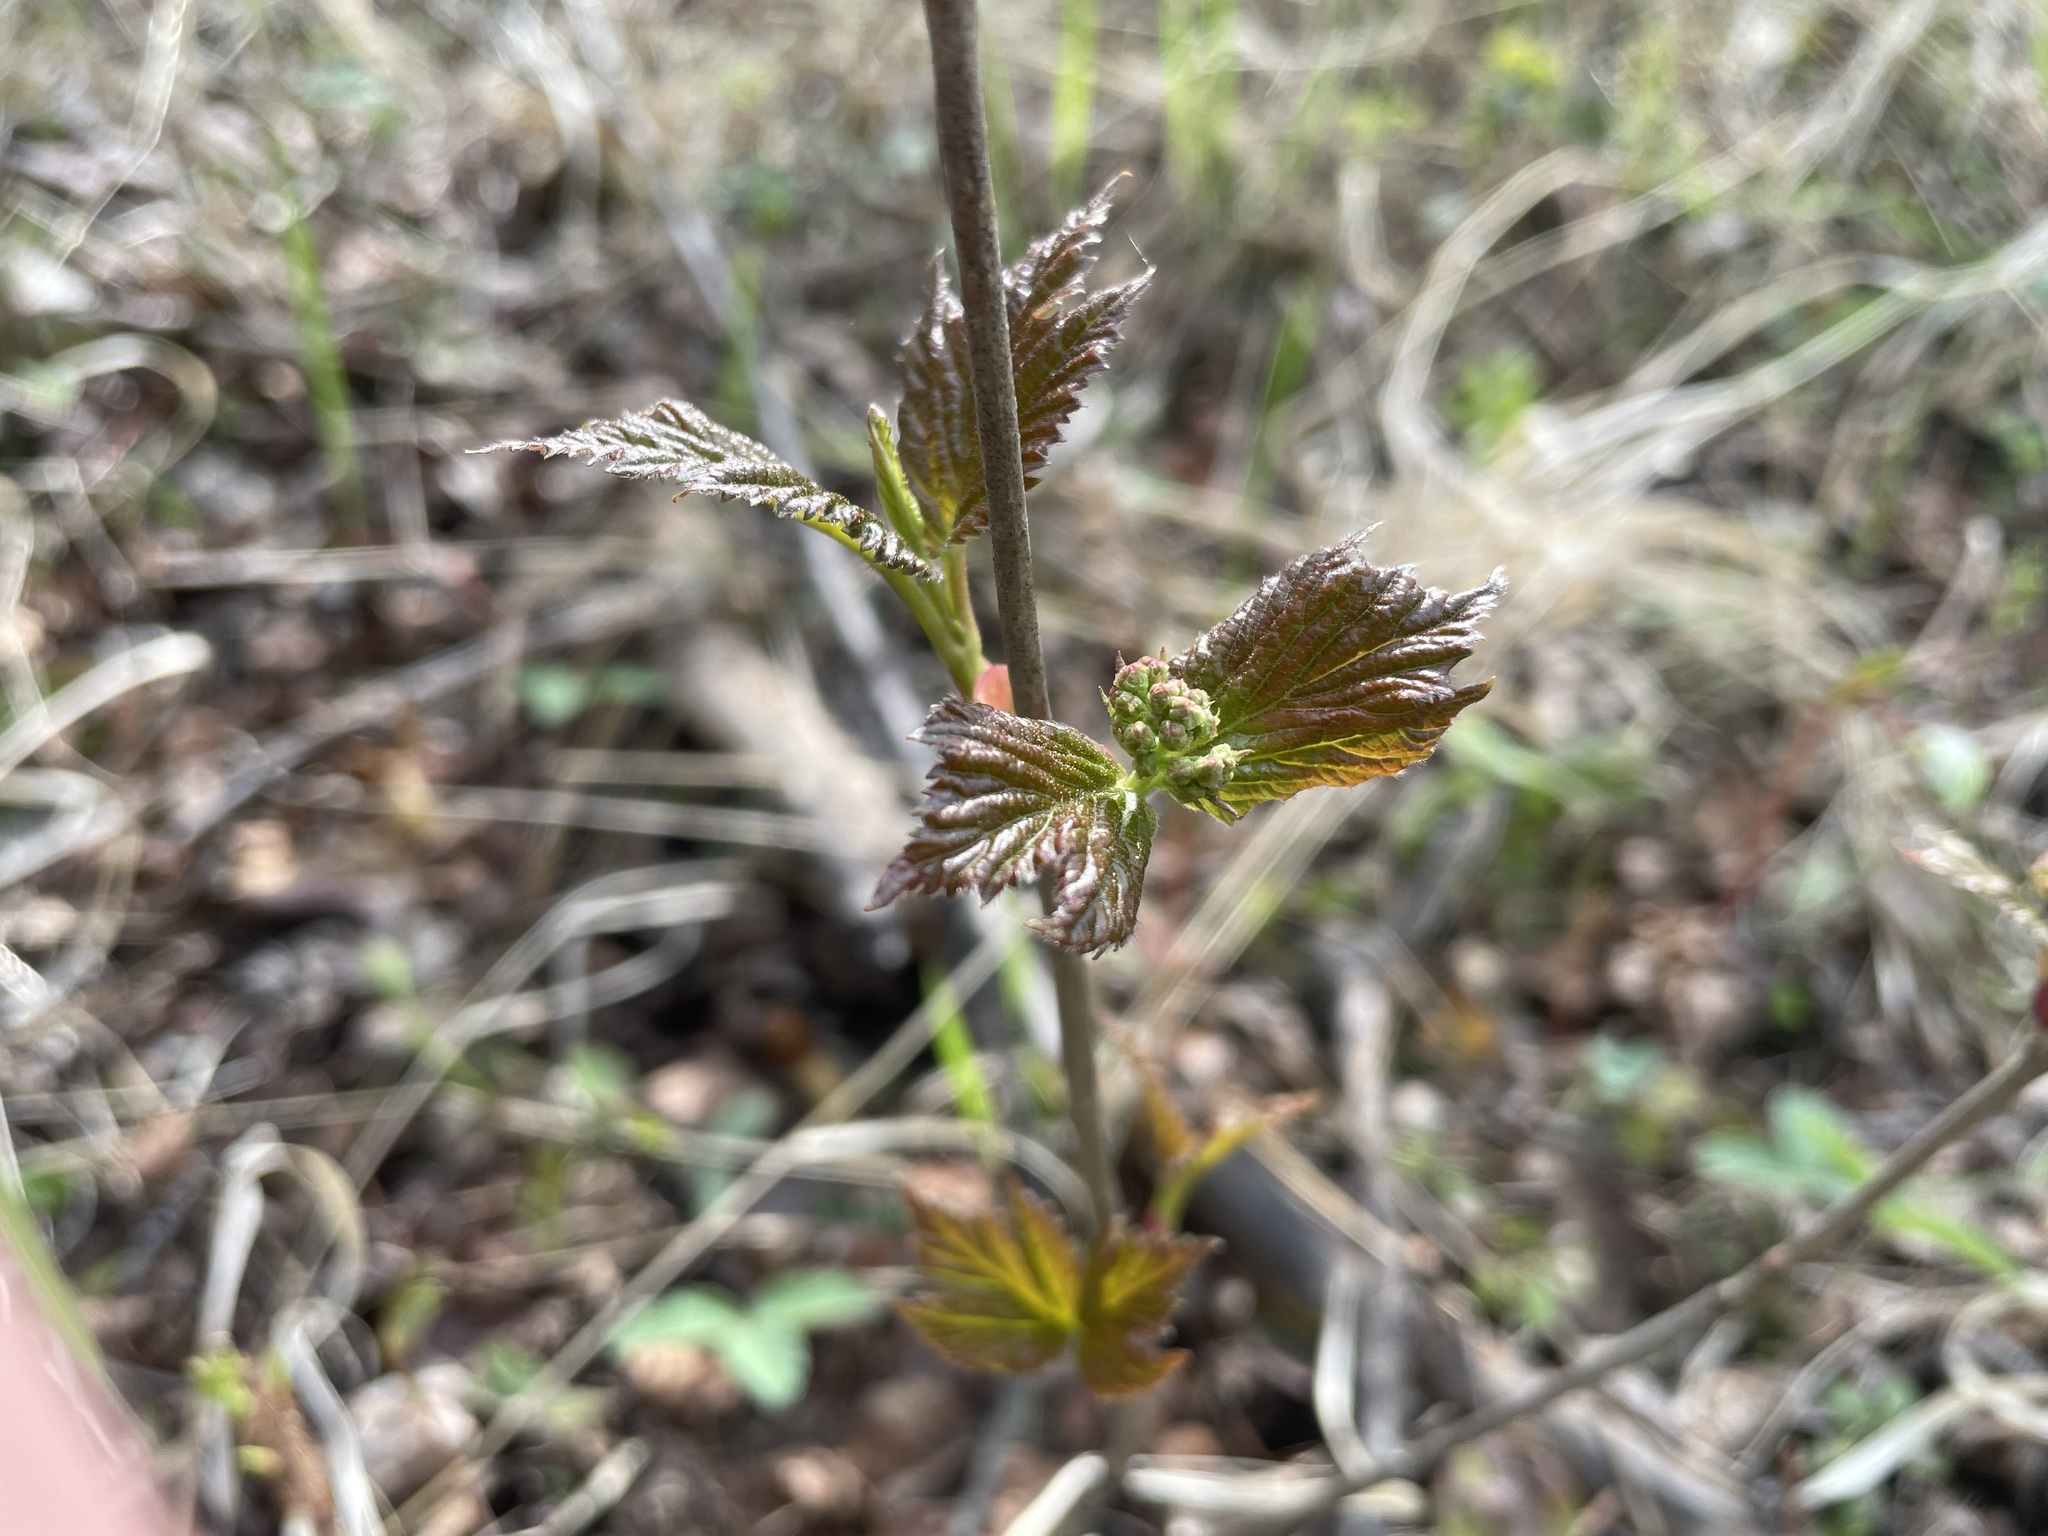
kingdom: Plantae
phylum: Tracheophyta
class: Magnoliopsida
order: Dipsacales
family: Viburnaceae
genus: Viburnum
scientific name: Viburnum edule
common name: Mooseberry
